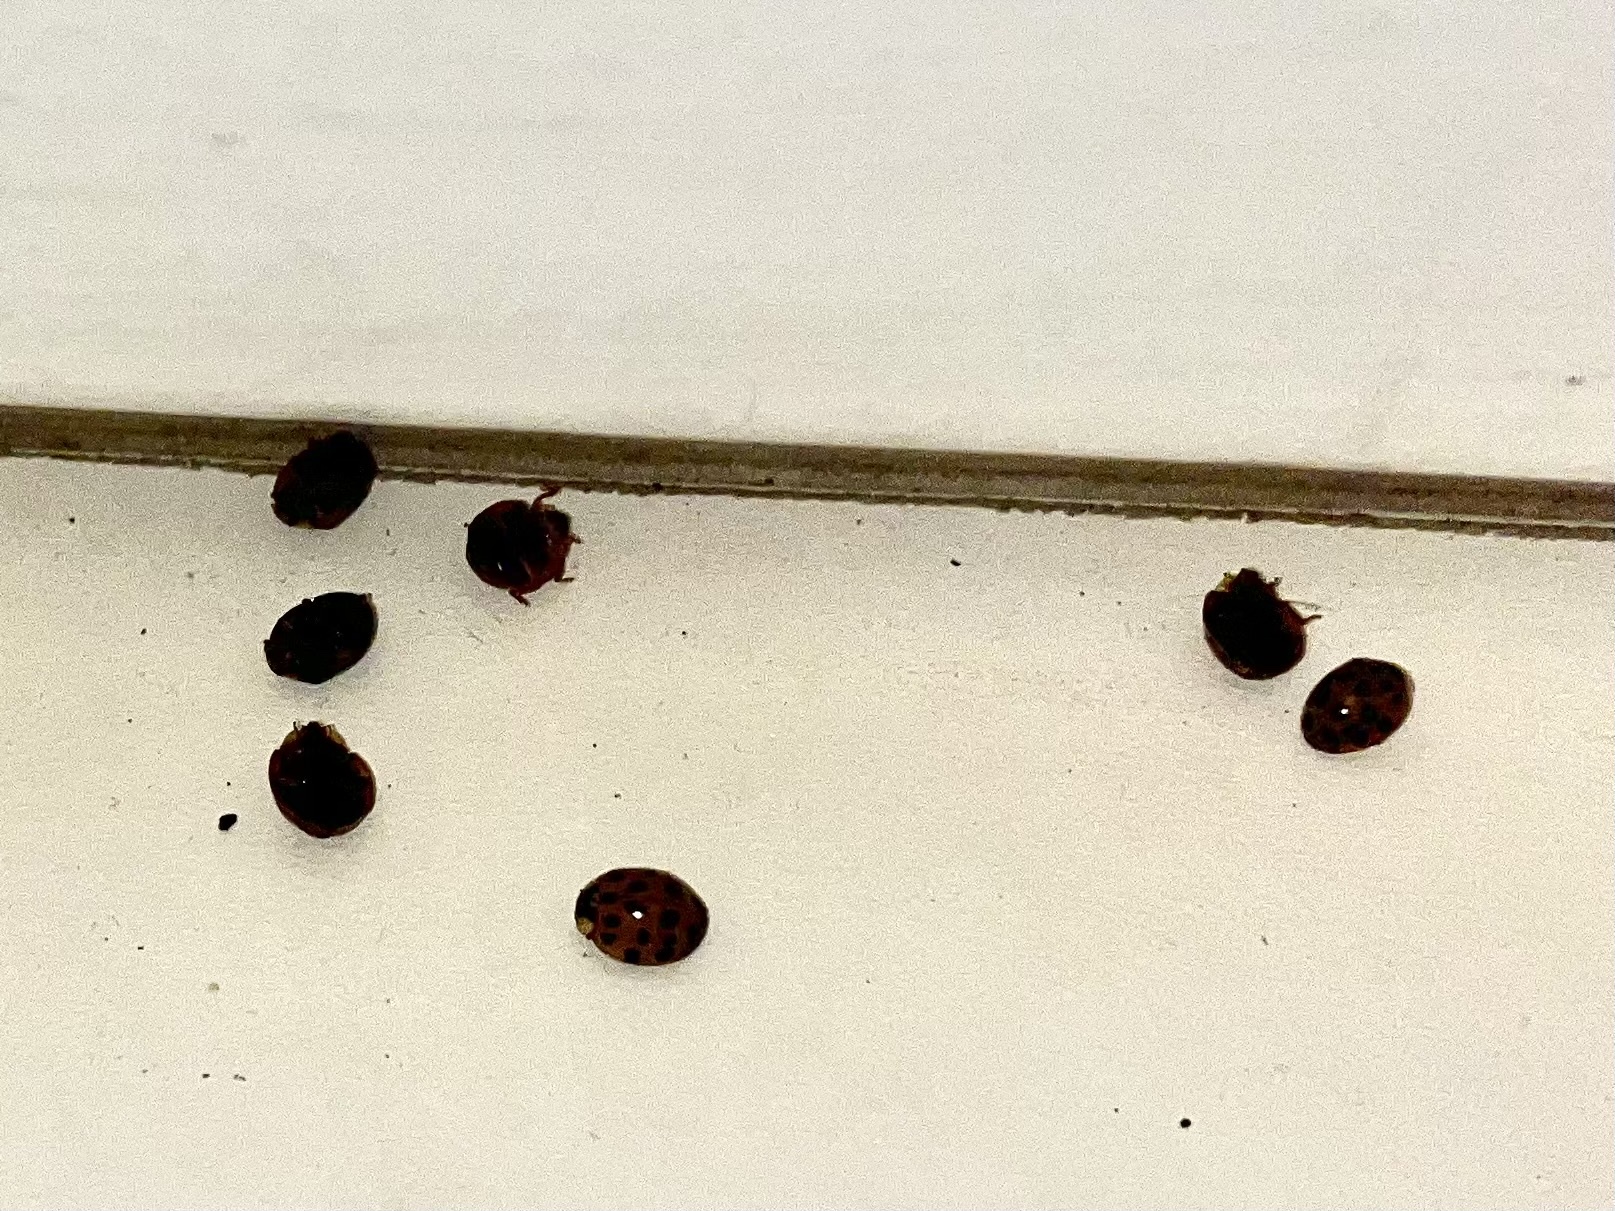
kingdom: Animalia
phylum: Arthropoda
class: Insecta
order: Coleoptera
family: Coccinellidae
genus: Harmonia
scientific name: Harmonia axyridis
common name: Harlequin ladybird
